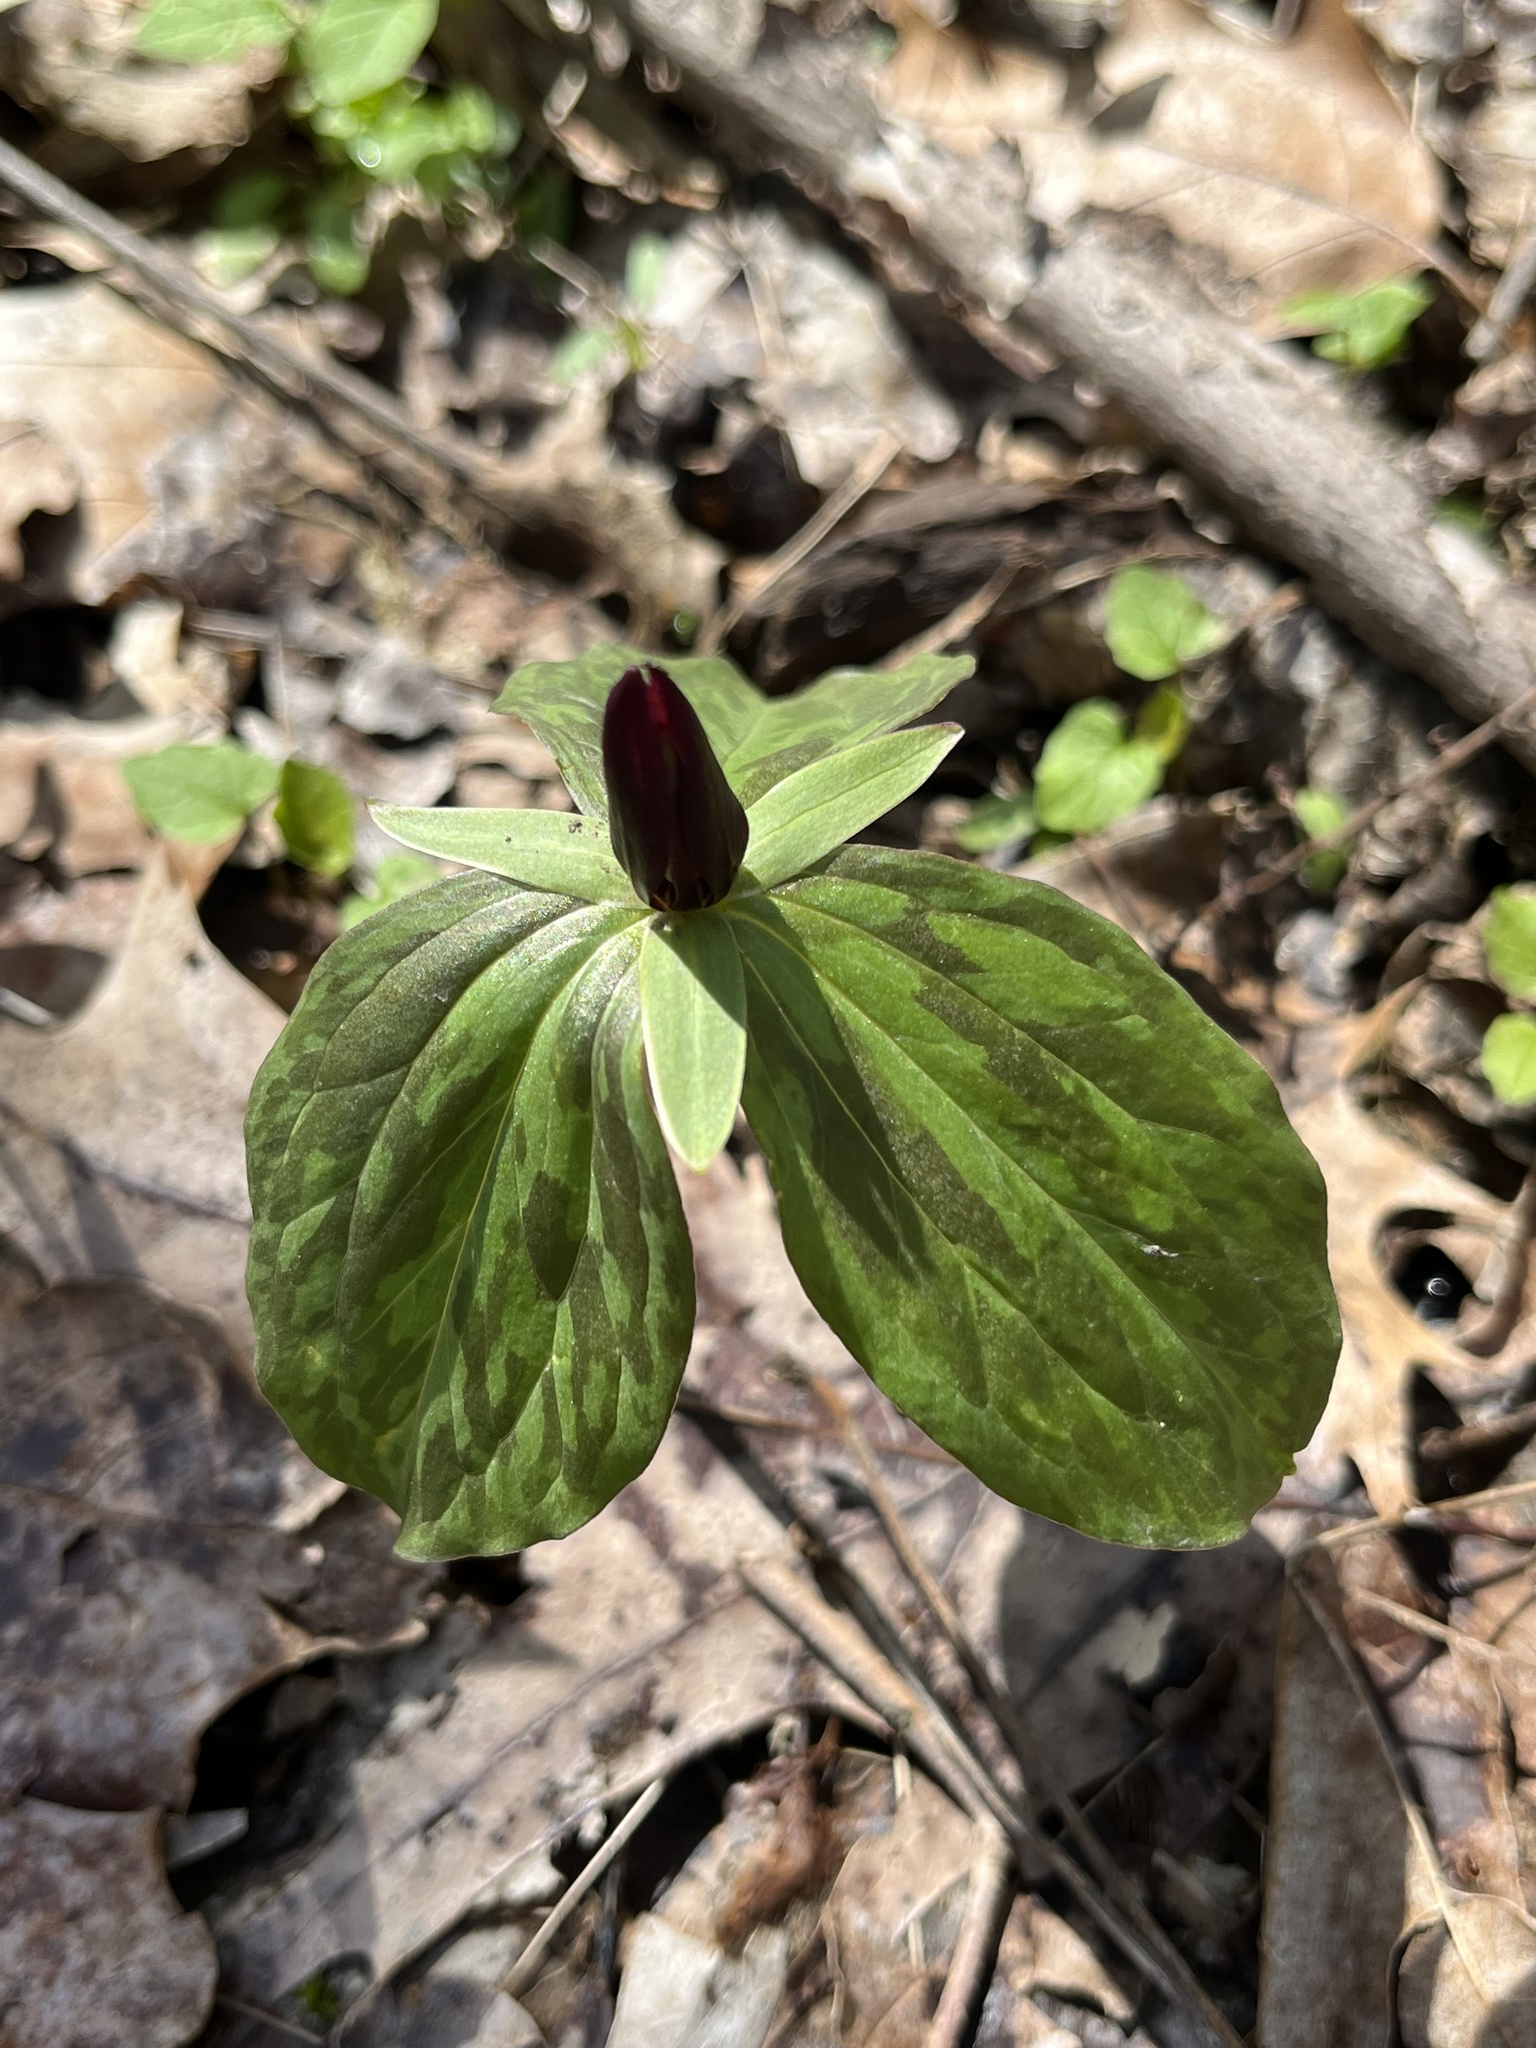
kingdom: Plantae
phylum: Tracheophyta
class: Liliopsida
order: Liliales
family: Melanthiaceae
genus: Trillium
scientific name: Trillium sessile
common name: Sessile trillium
